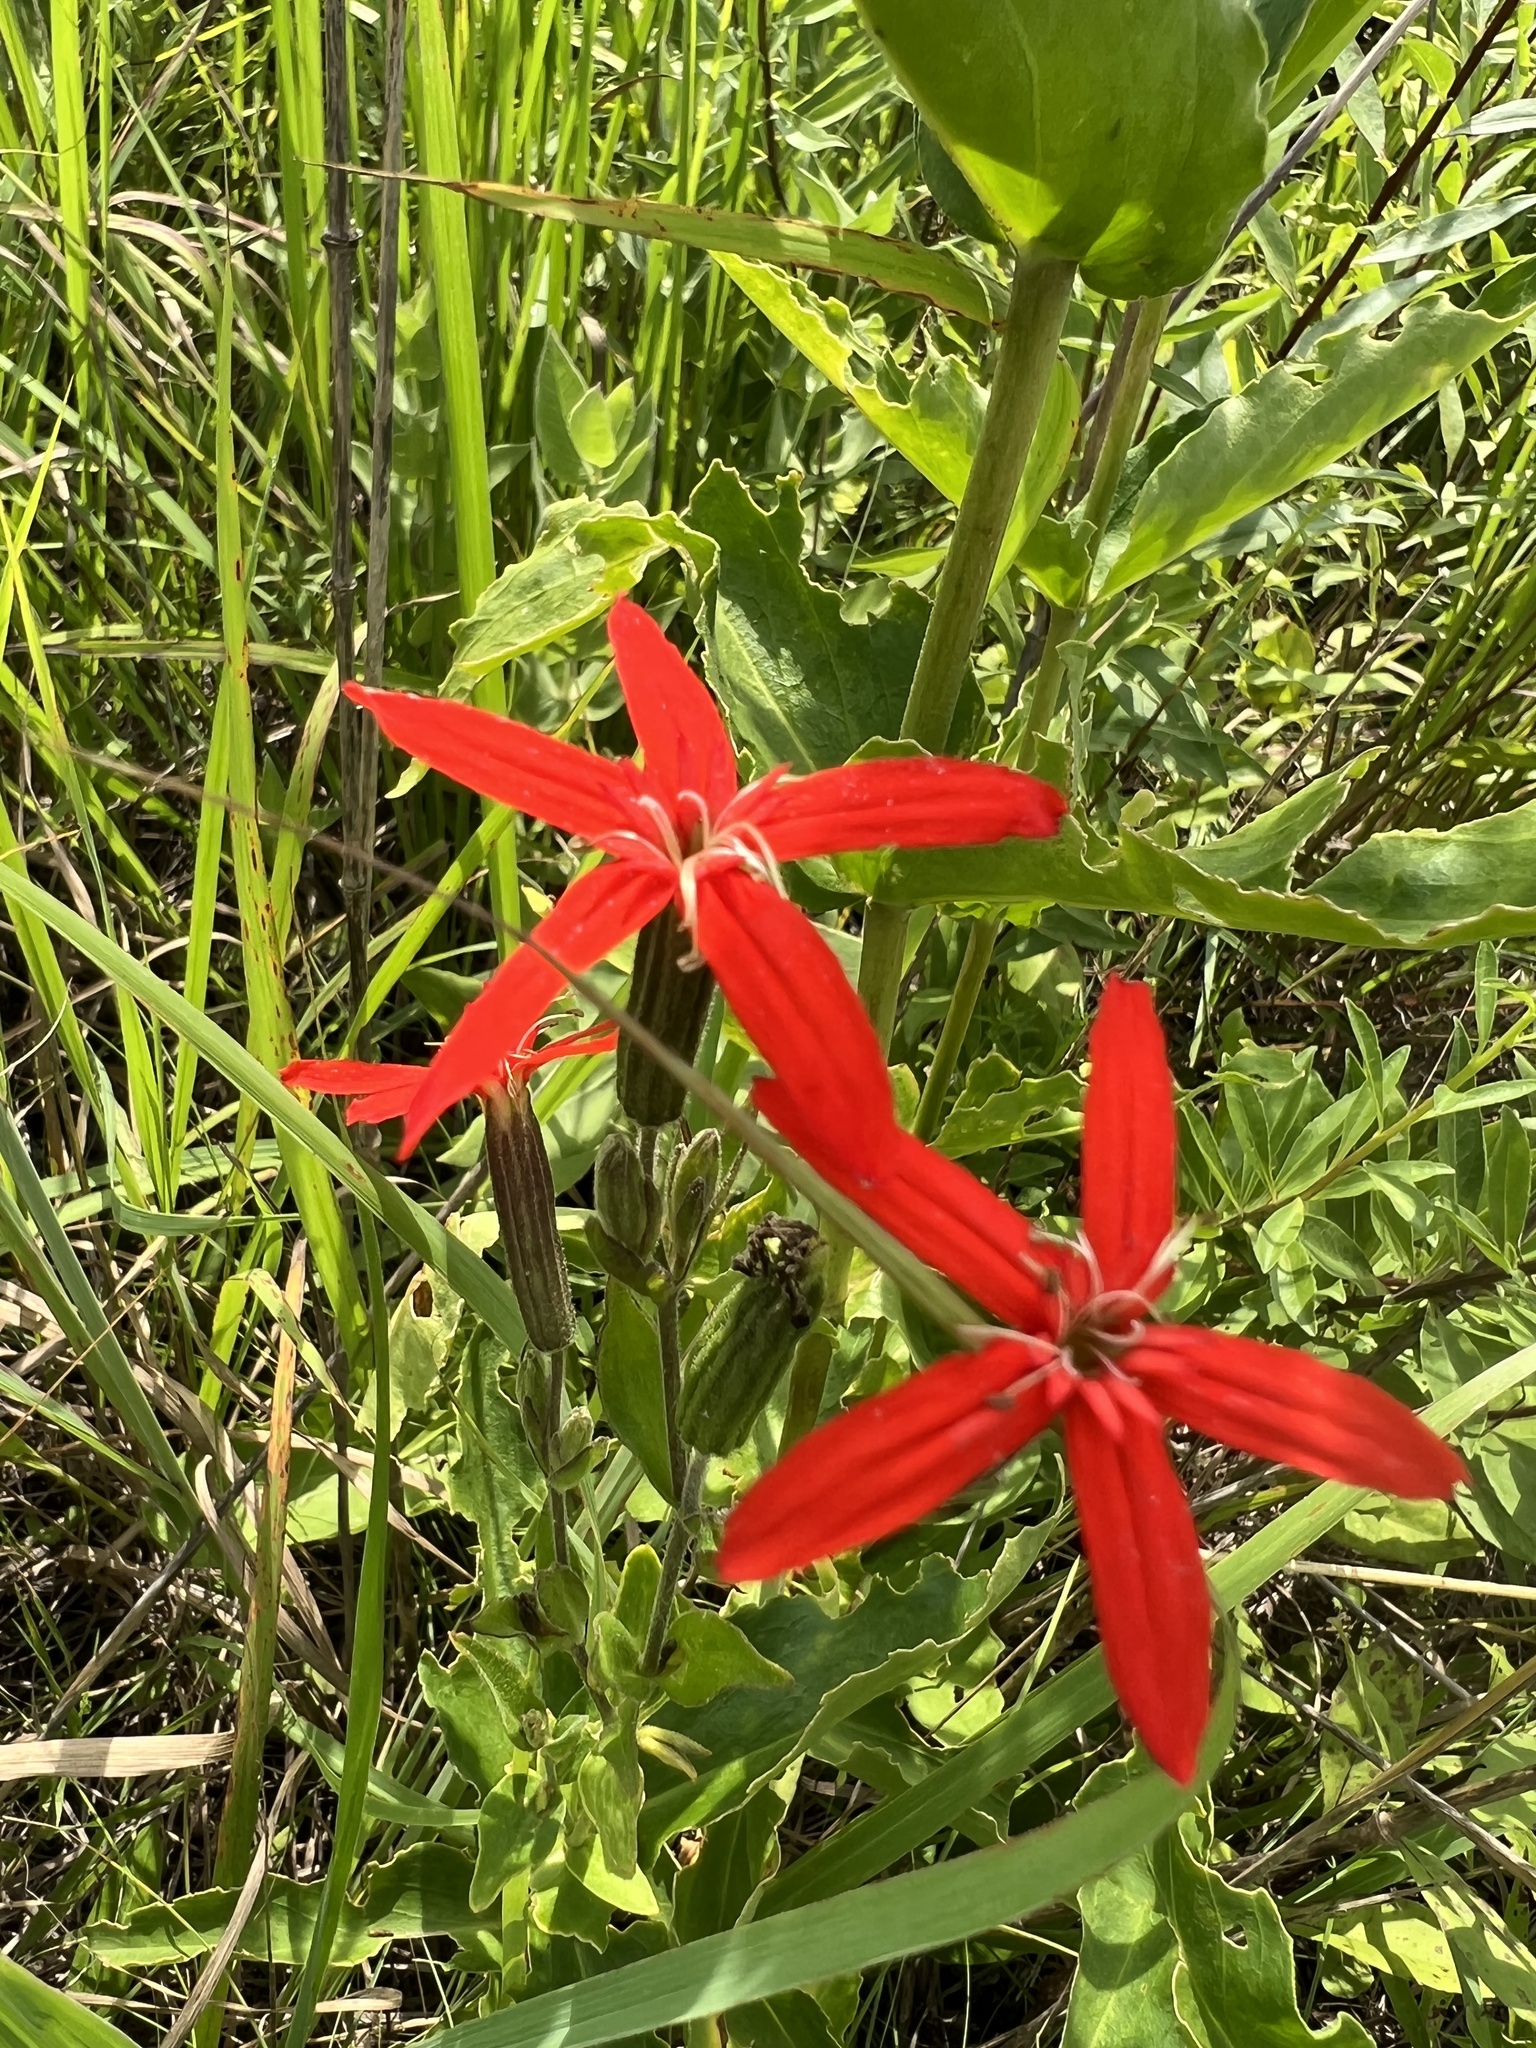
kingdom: Plantae
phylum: Tracheophyta
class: Magnoliopsida
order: Caryophyllales
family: Caryophyllaceae
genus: Silene
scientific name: Silene regia
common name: Royal catchfly
